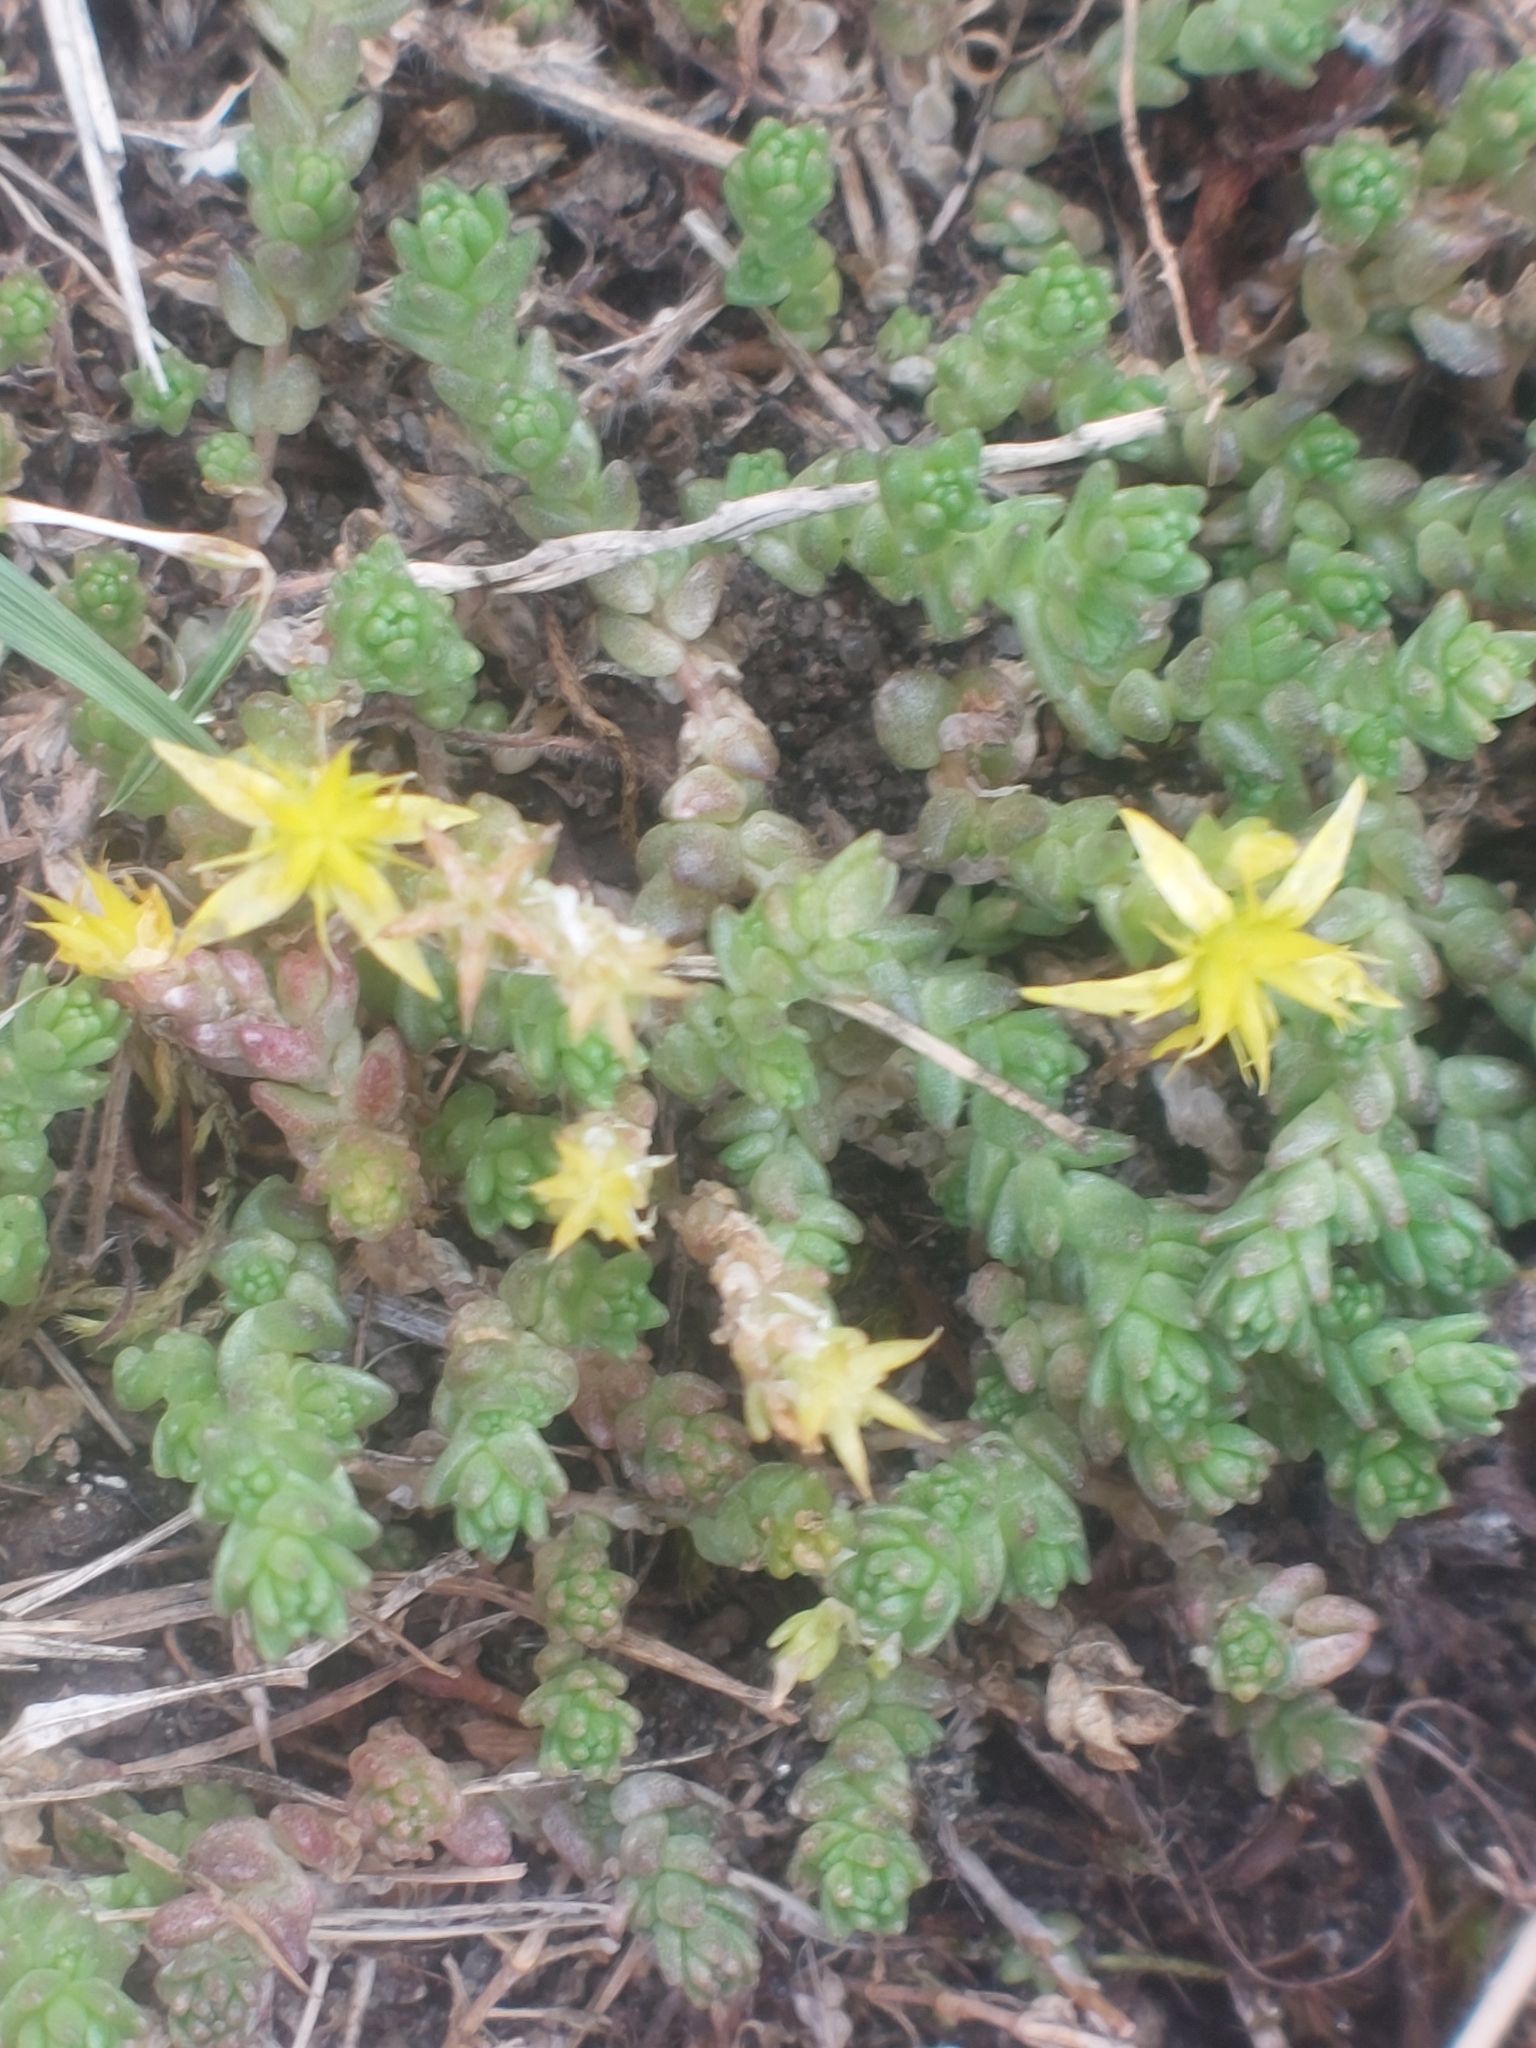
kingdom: Plantae
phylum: Tracheophyta
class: Magnoliopsida
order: Saxifragales
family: Crassulaceae
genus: Sedum
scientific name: Sedum acre
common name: Biting stonecrop
